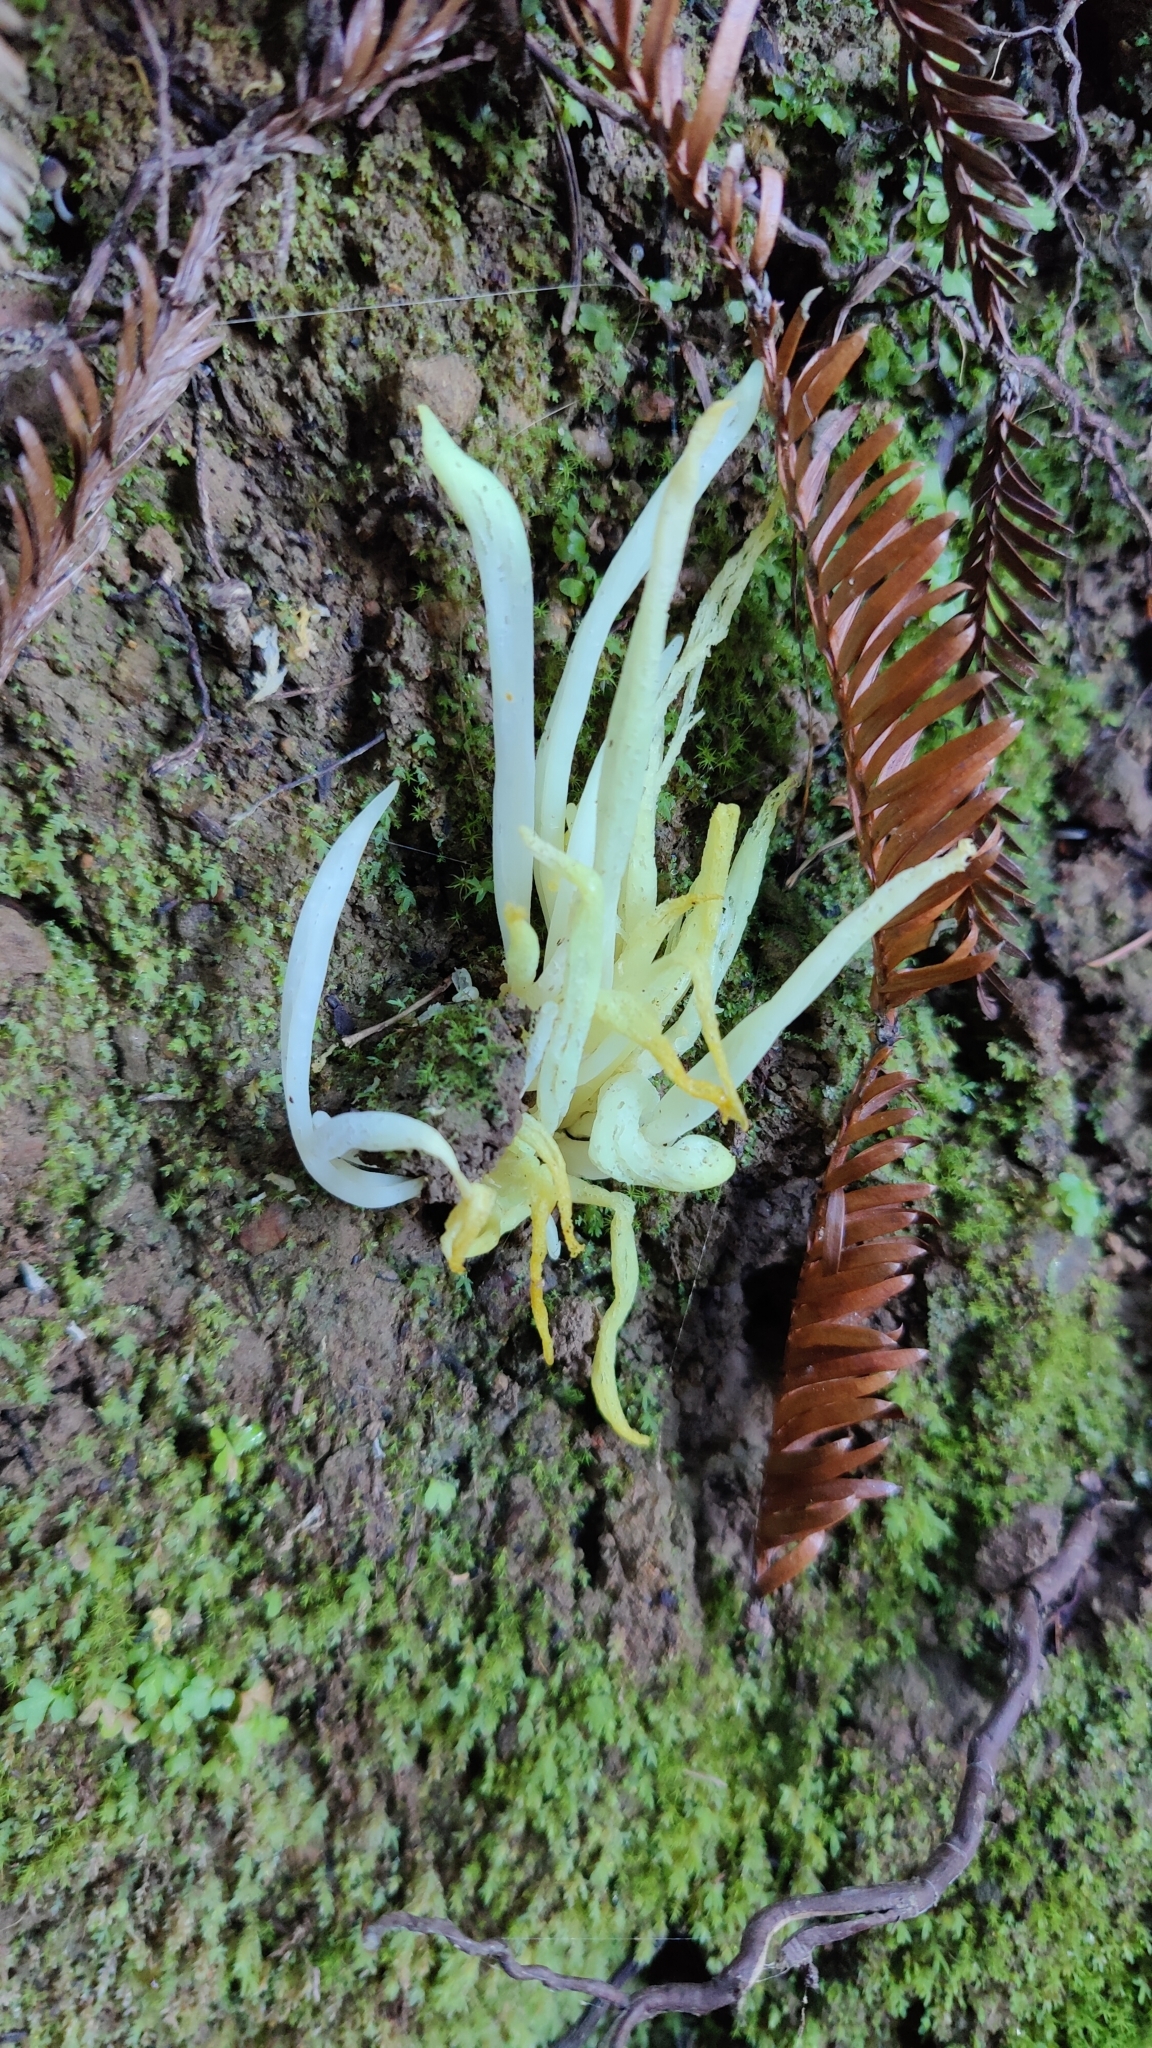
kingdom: Fungi
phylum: Basidiomycota
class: Agaricomycetes
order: Agaricales
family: Clavariaceae
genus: Clavaria
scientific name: Clavaria fragilis
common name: White spindles
